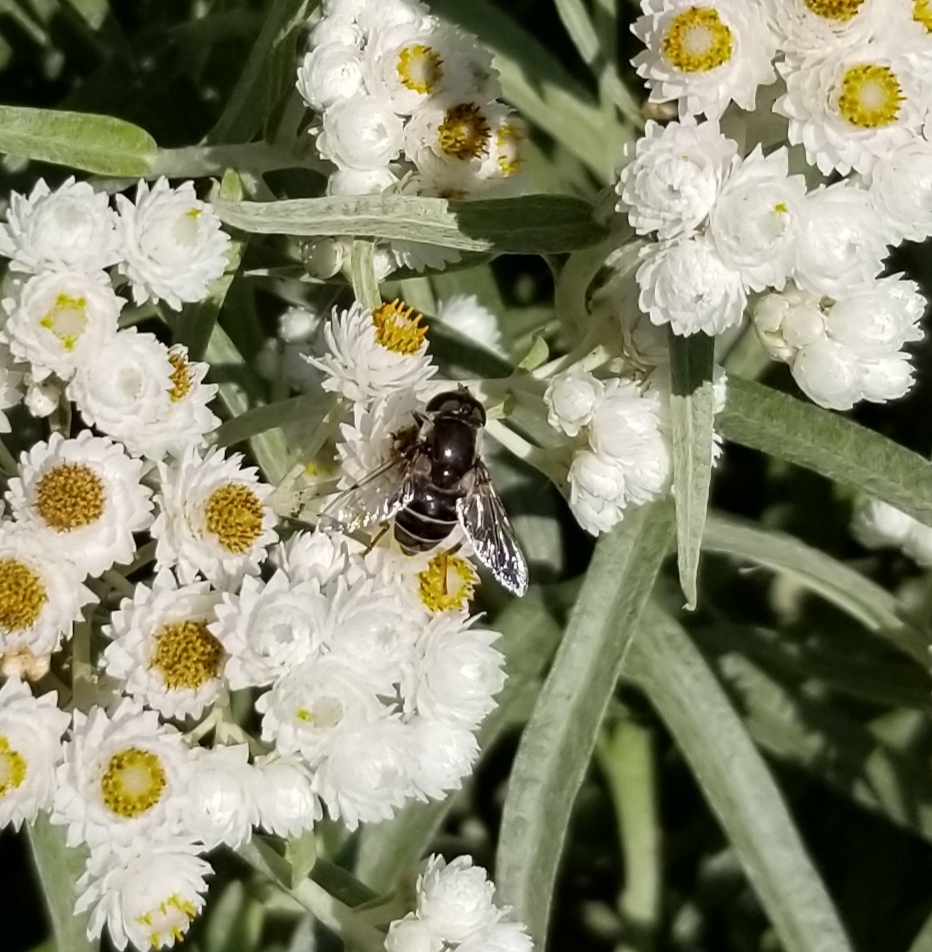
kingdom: Animalia
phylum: Arthropoda
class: Insecta
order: Diptera
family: Syrphidae
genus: Eristalis
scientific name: Eristalis dimidiata
